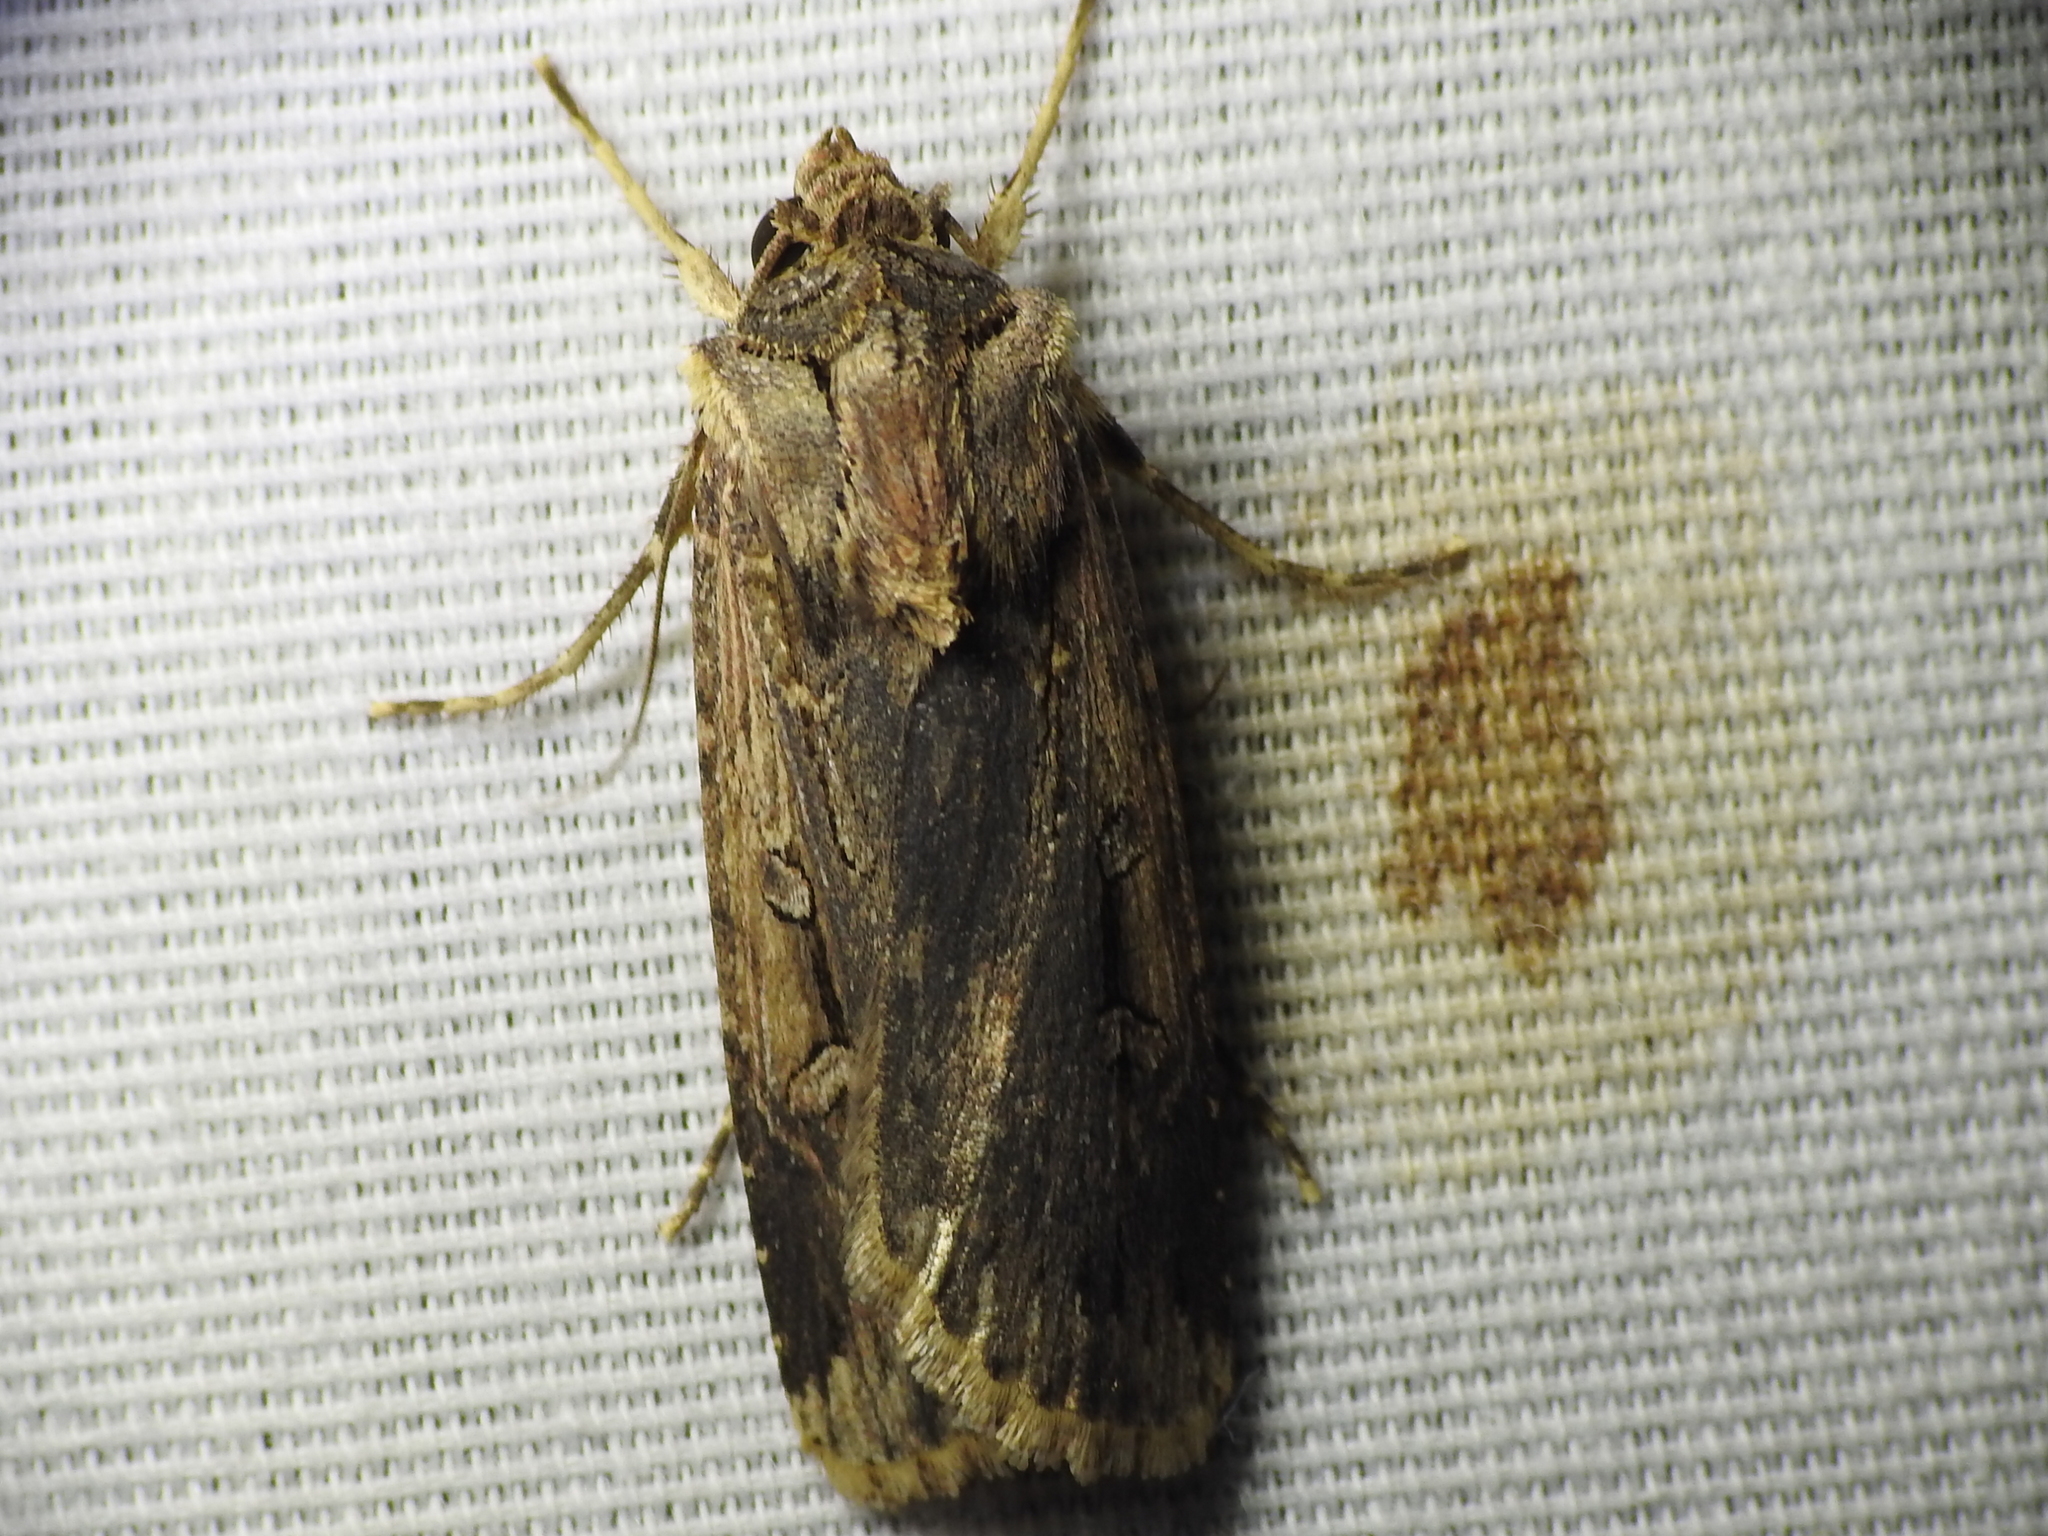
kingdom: Animalia
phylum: Arthropoda
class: Insecta
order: Lepidoptera
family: Noctuidae
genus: Feltia
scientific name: Feltia subterranea
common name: Granulate cutworm
